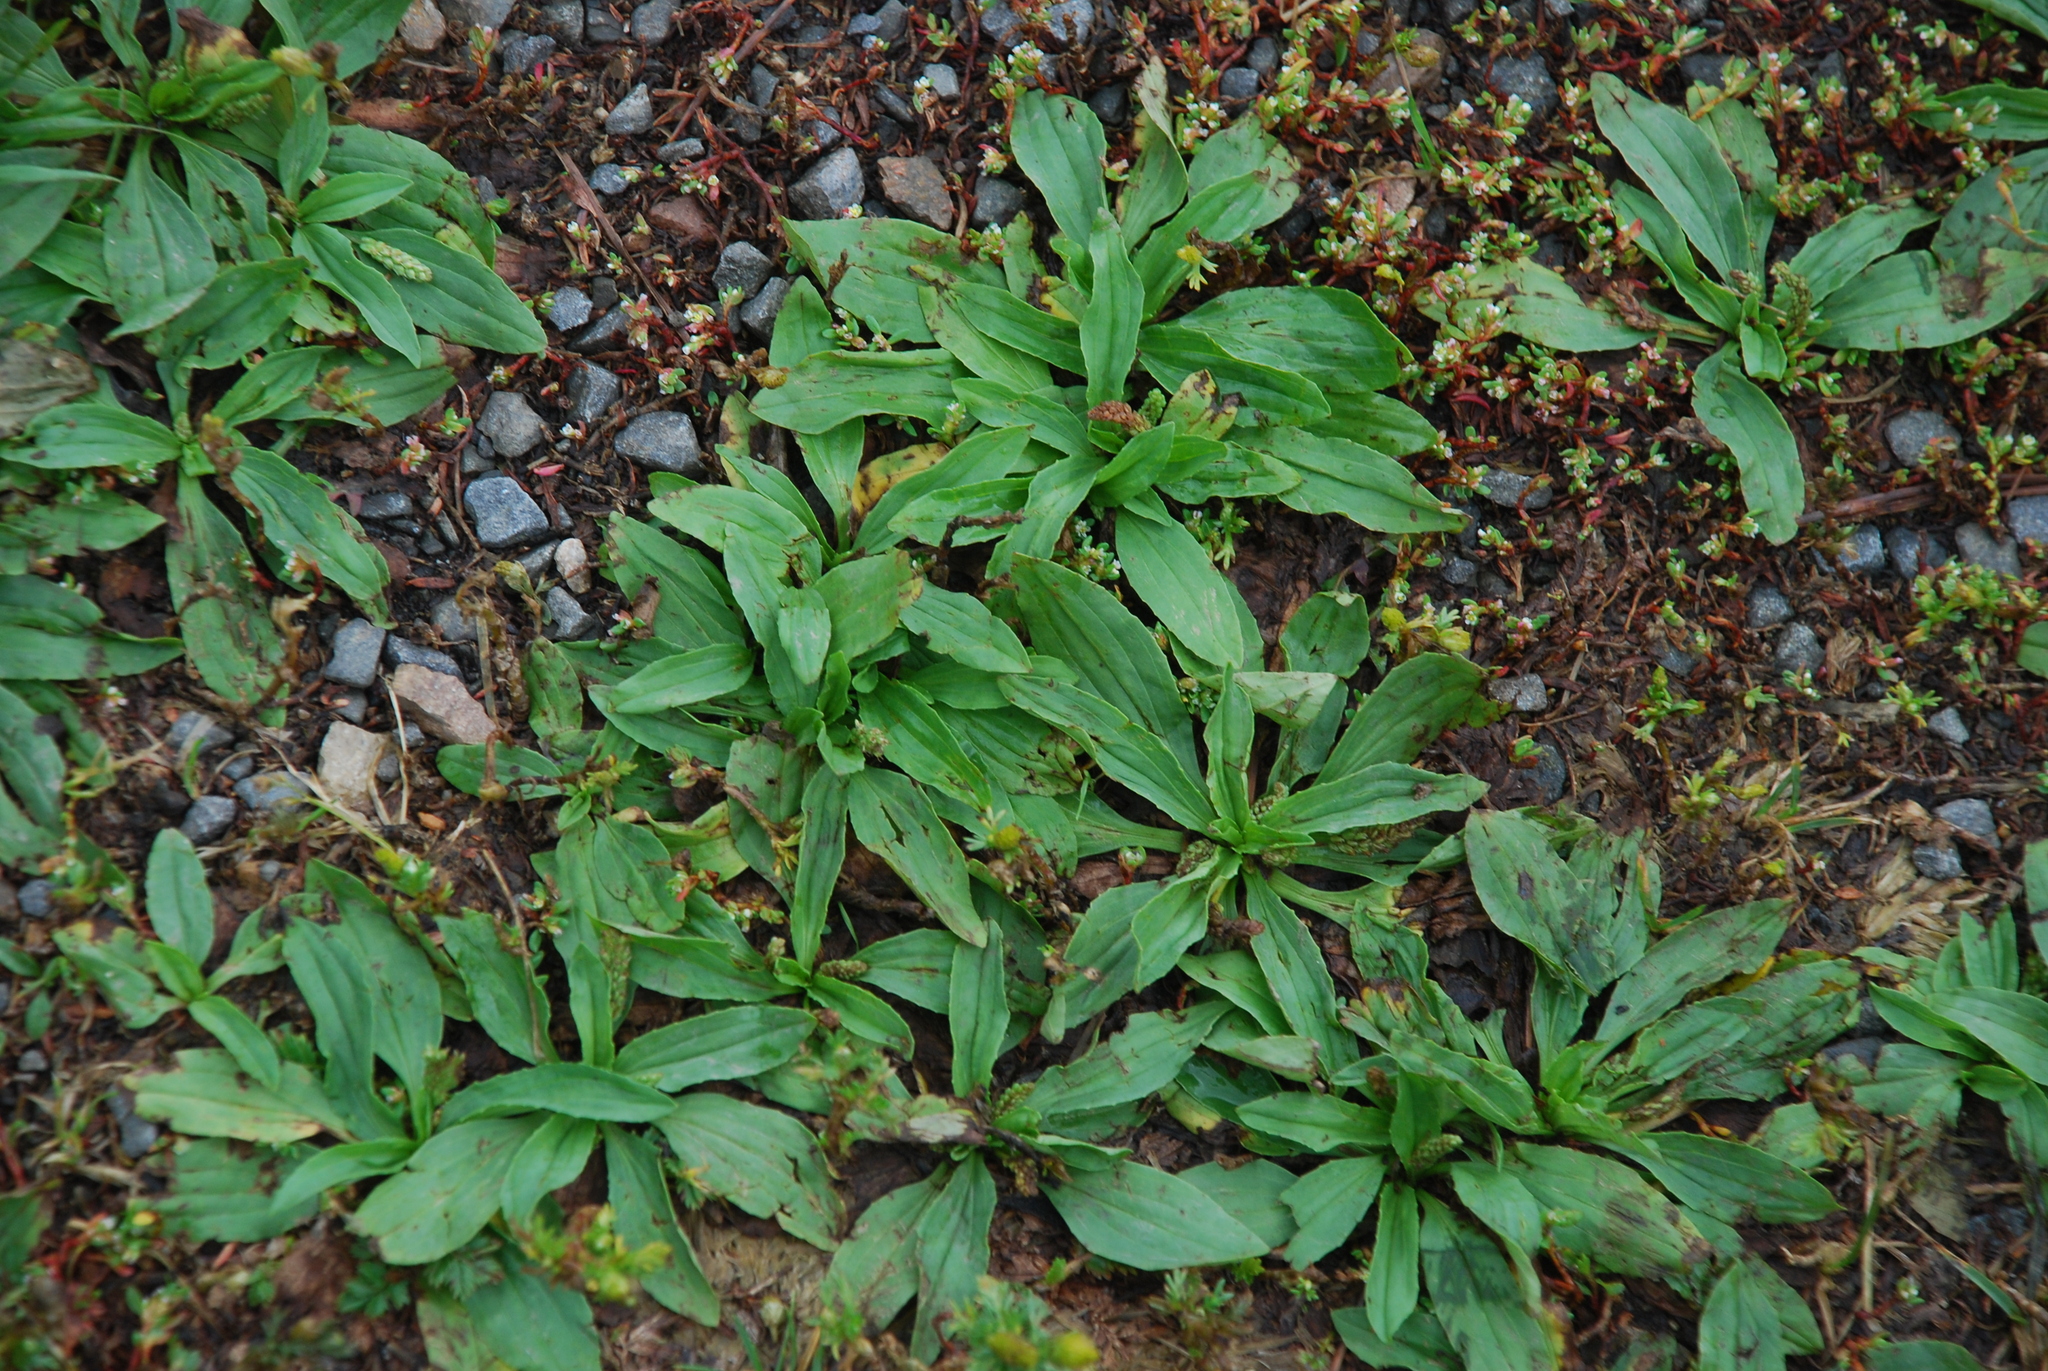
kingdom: Plantae
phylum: Tracheophyta
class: Magnoliopsida
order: Lamiales
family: Plantaginaceae
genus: Plantago
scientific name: Plantago depressa
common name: Depressed plantain
